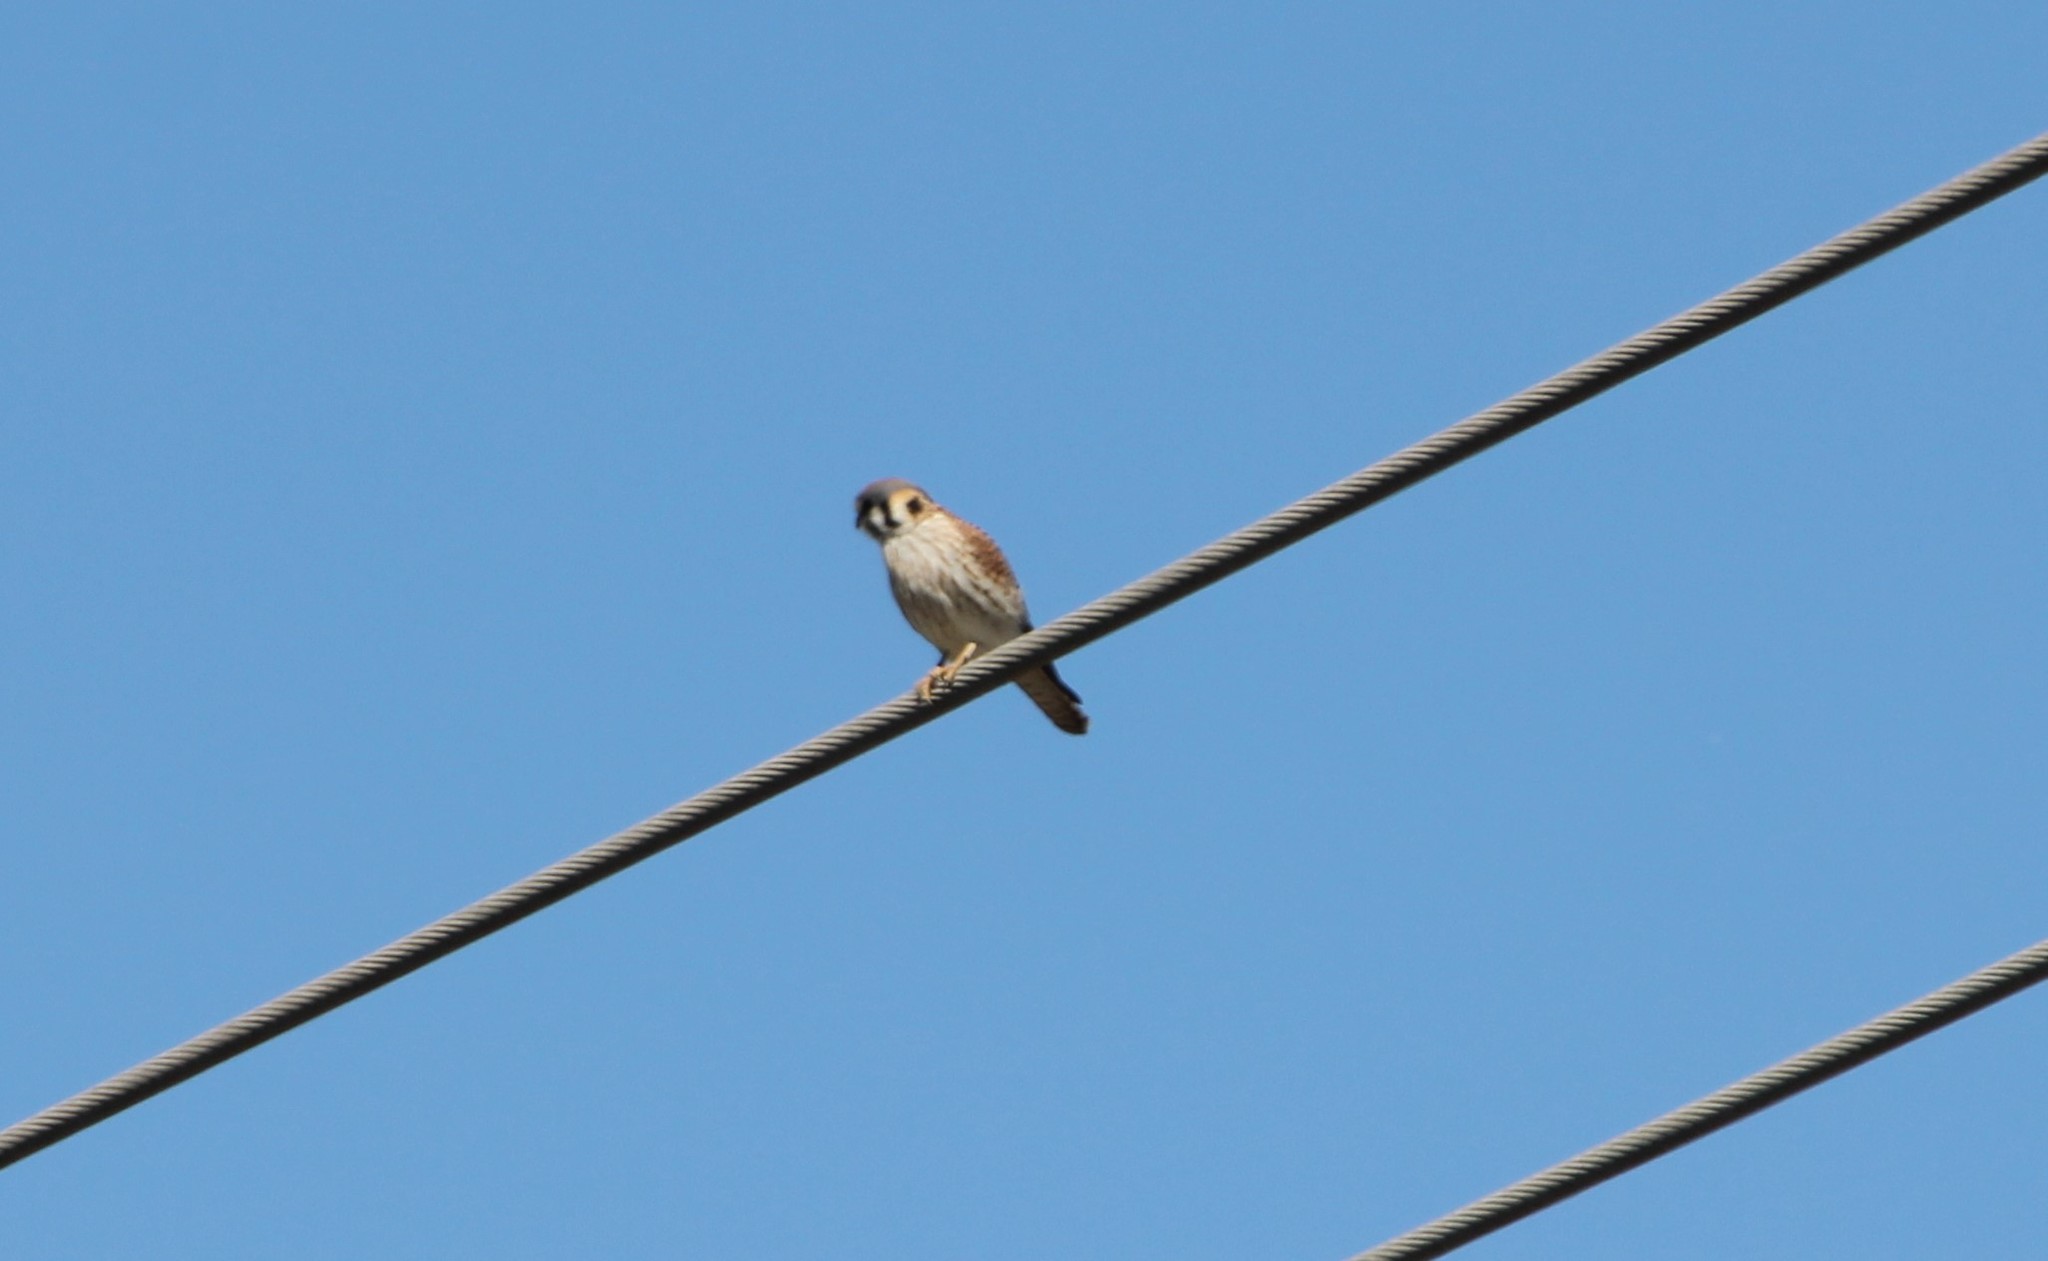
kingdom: Animalia
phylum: Chordata
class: Aves
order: Falconiformes
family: Falconidae
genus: Falco
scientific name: Falco sparverius
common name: American kestrel
